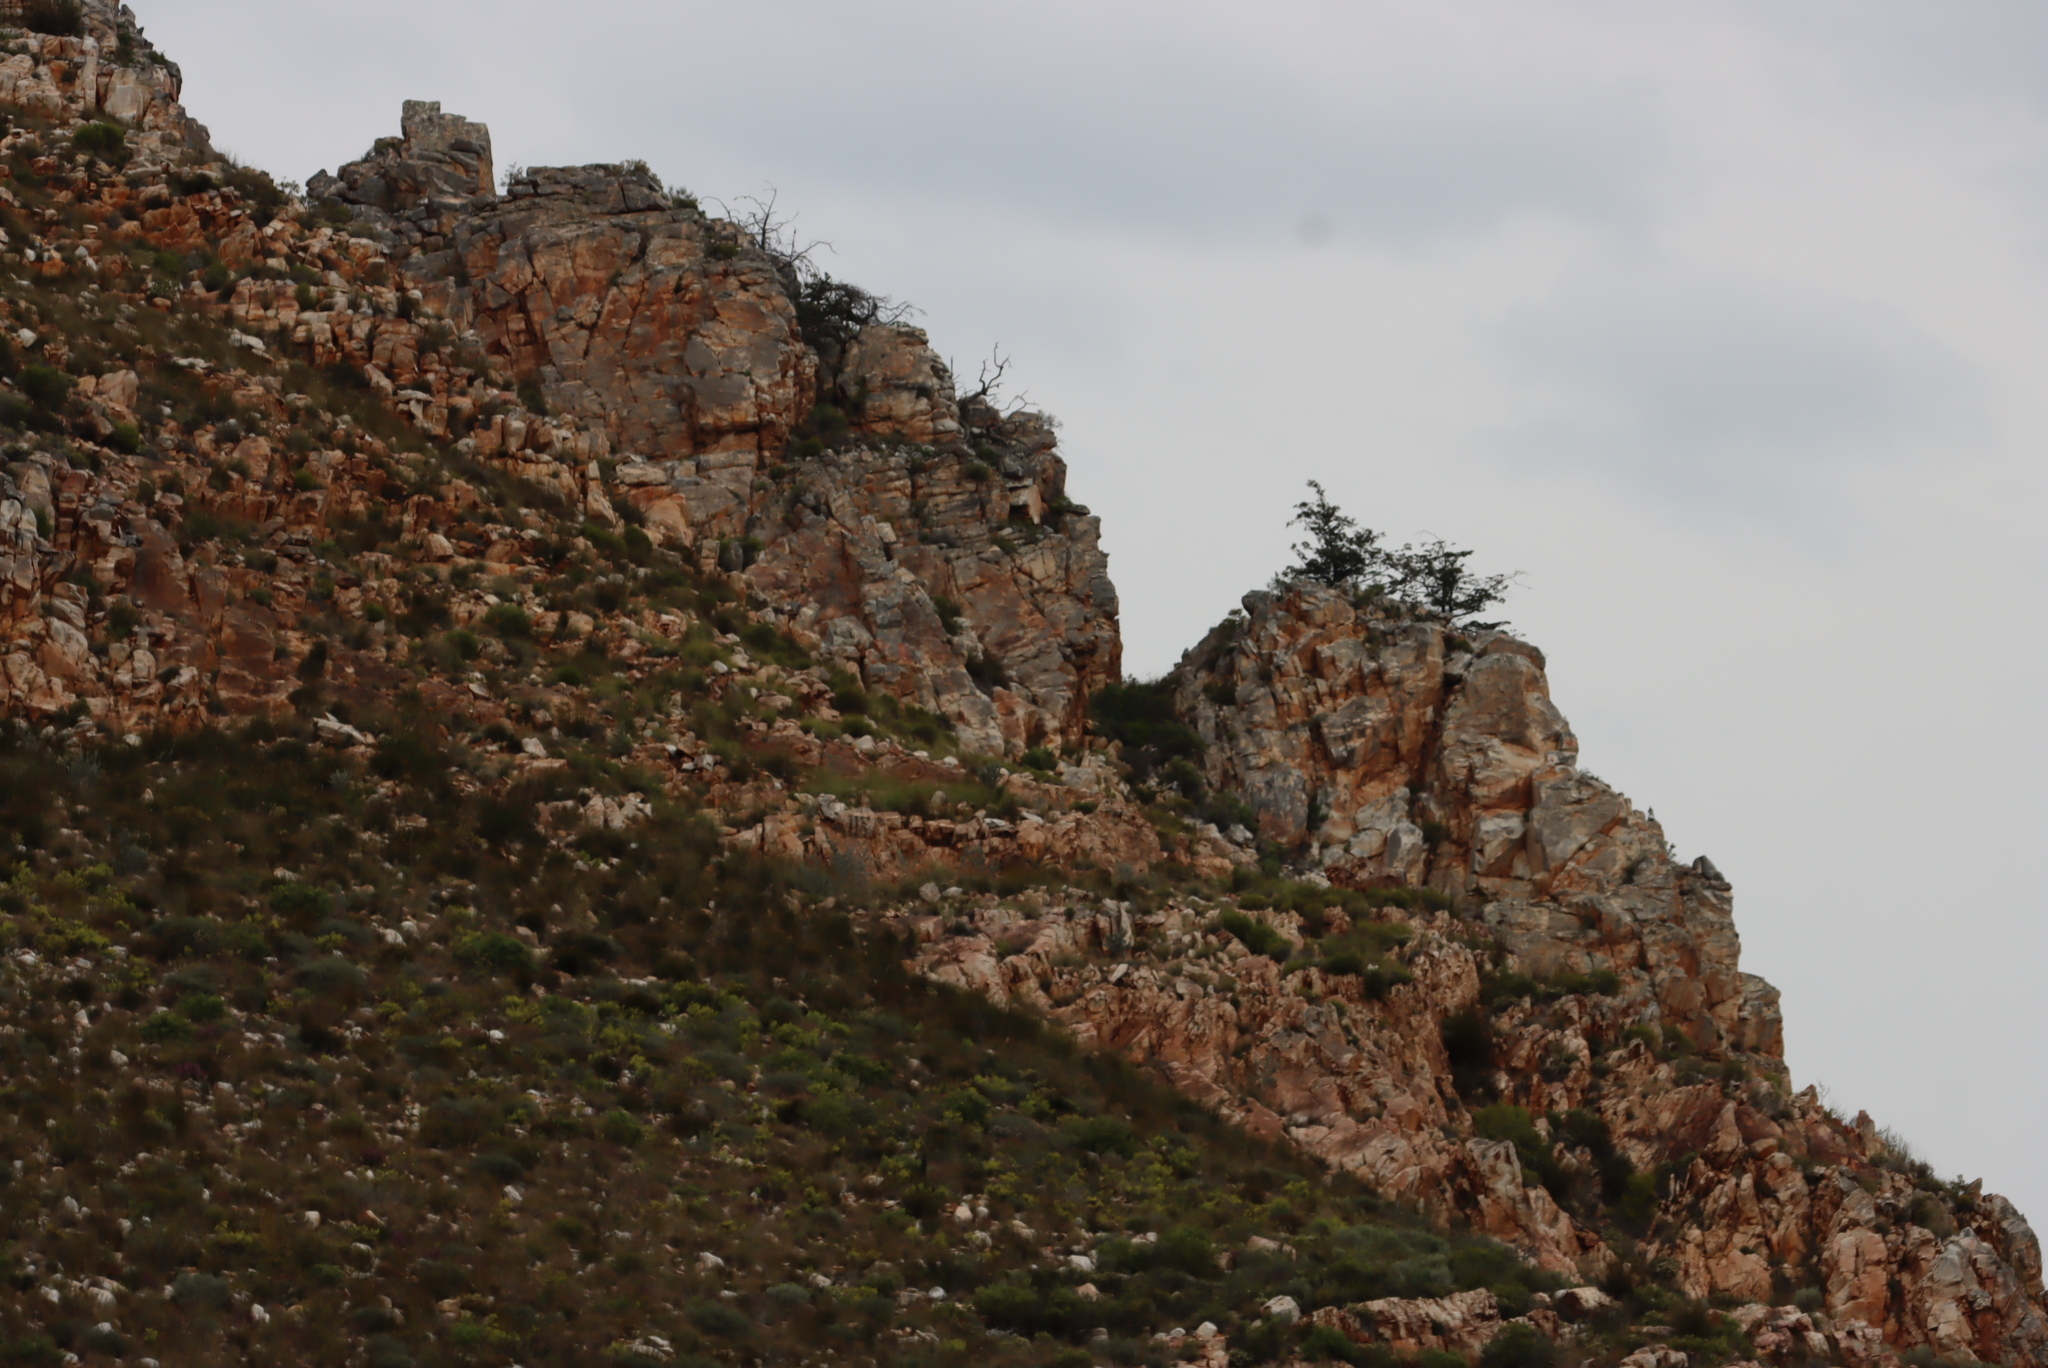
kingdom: Plantae
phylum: Tracheophyta
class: Pinopsida
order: Pinales
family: Cupressaceae
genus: Widdringtonia
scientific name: Widdringtonia schwarzii
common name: Baviaans cedar
